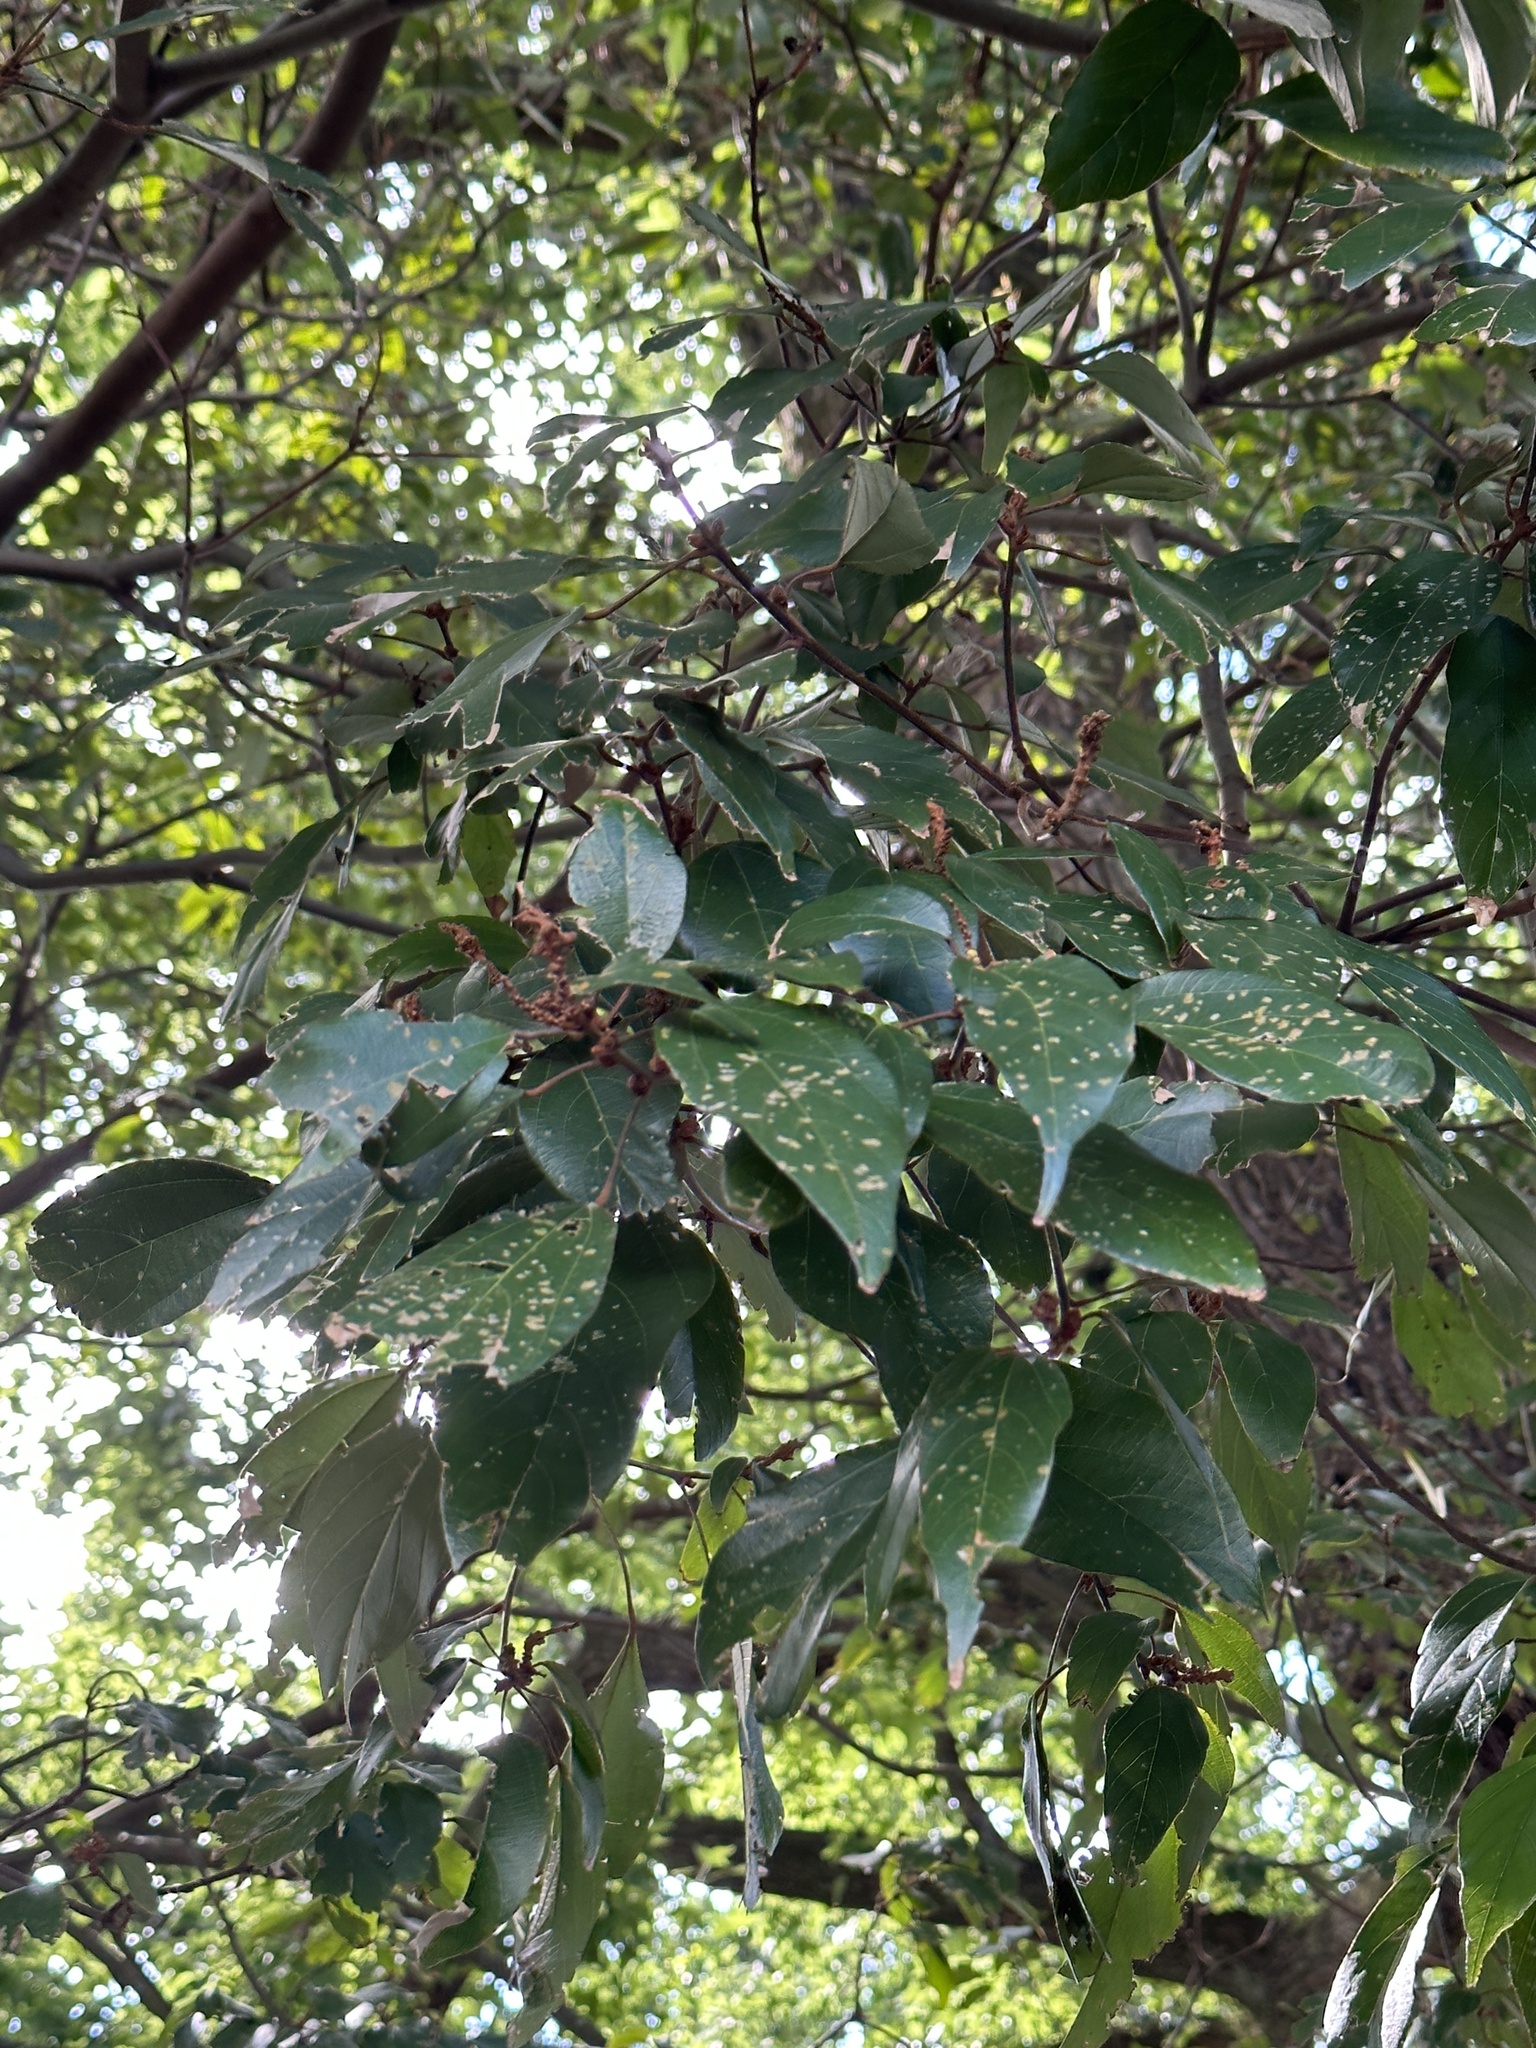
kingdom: Plantae
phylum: Tracheophyta
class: Magnoliopsida
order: Malpighiales
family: Euphorbiaceae
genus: Mallotus
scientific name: Mallotus philippensis
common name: Kamala tree
